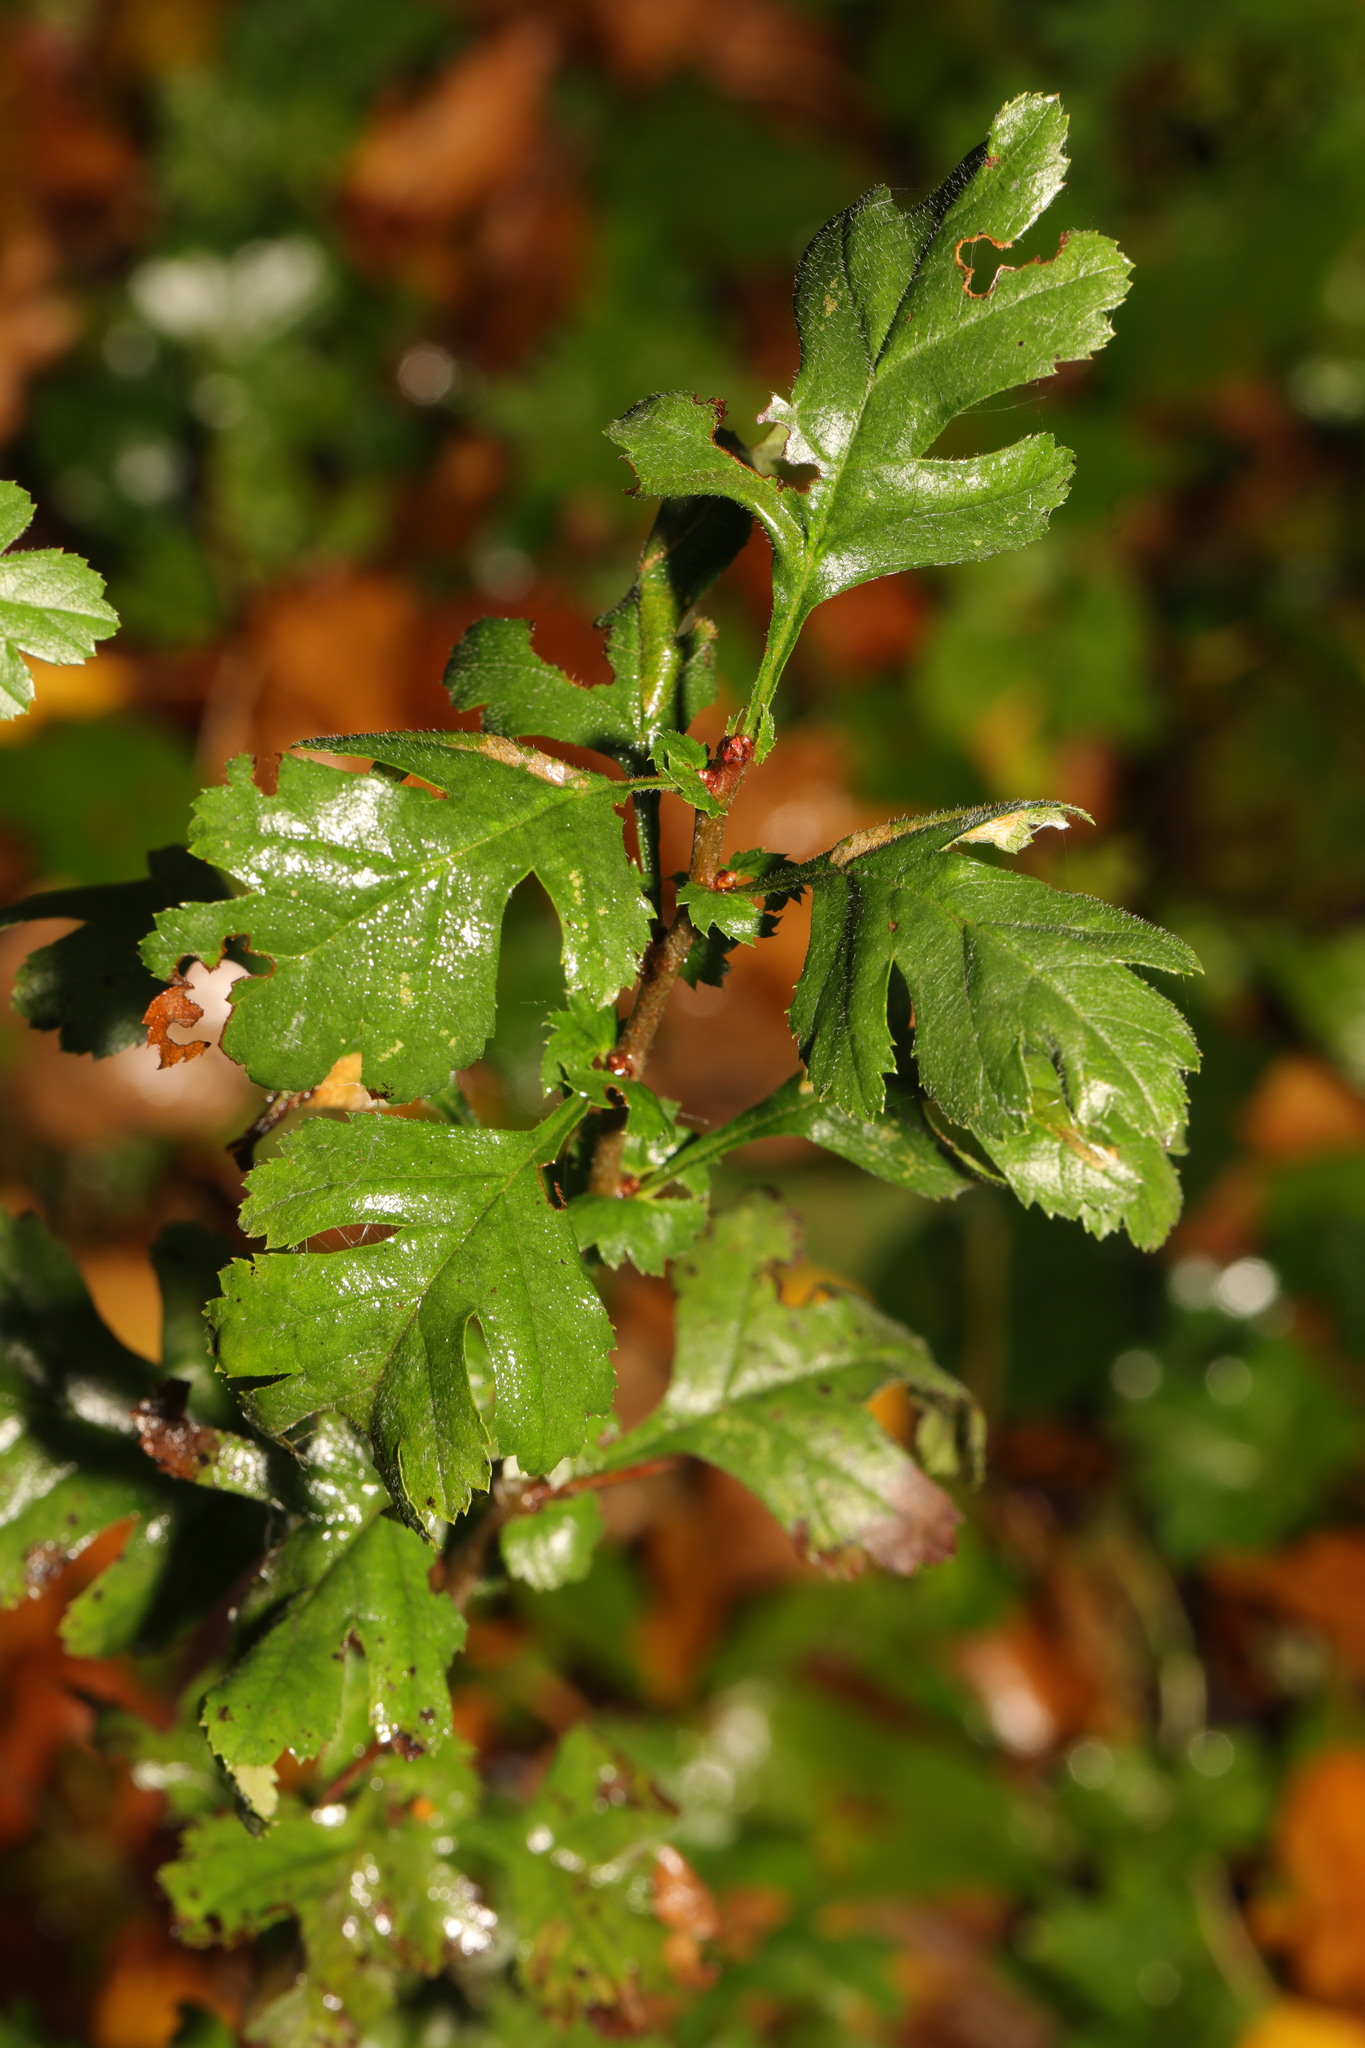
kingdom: Plantae
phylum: Tracheophyta
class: Magnoliopsida
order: Rosales
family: Rosaceae
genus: Crataegus
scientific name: Crataegus monogyna
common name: Hawthorn
